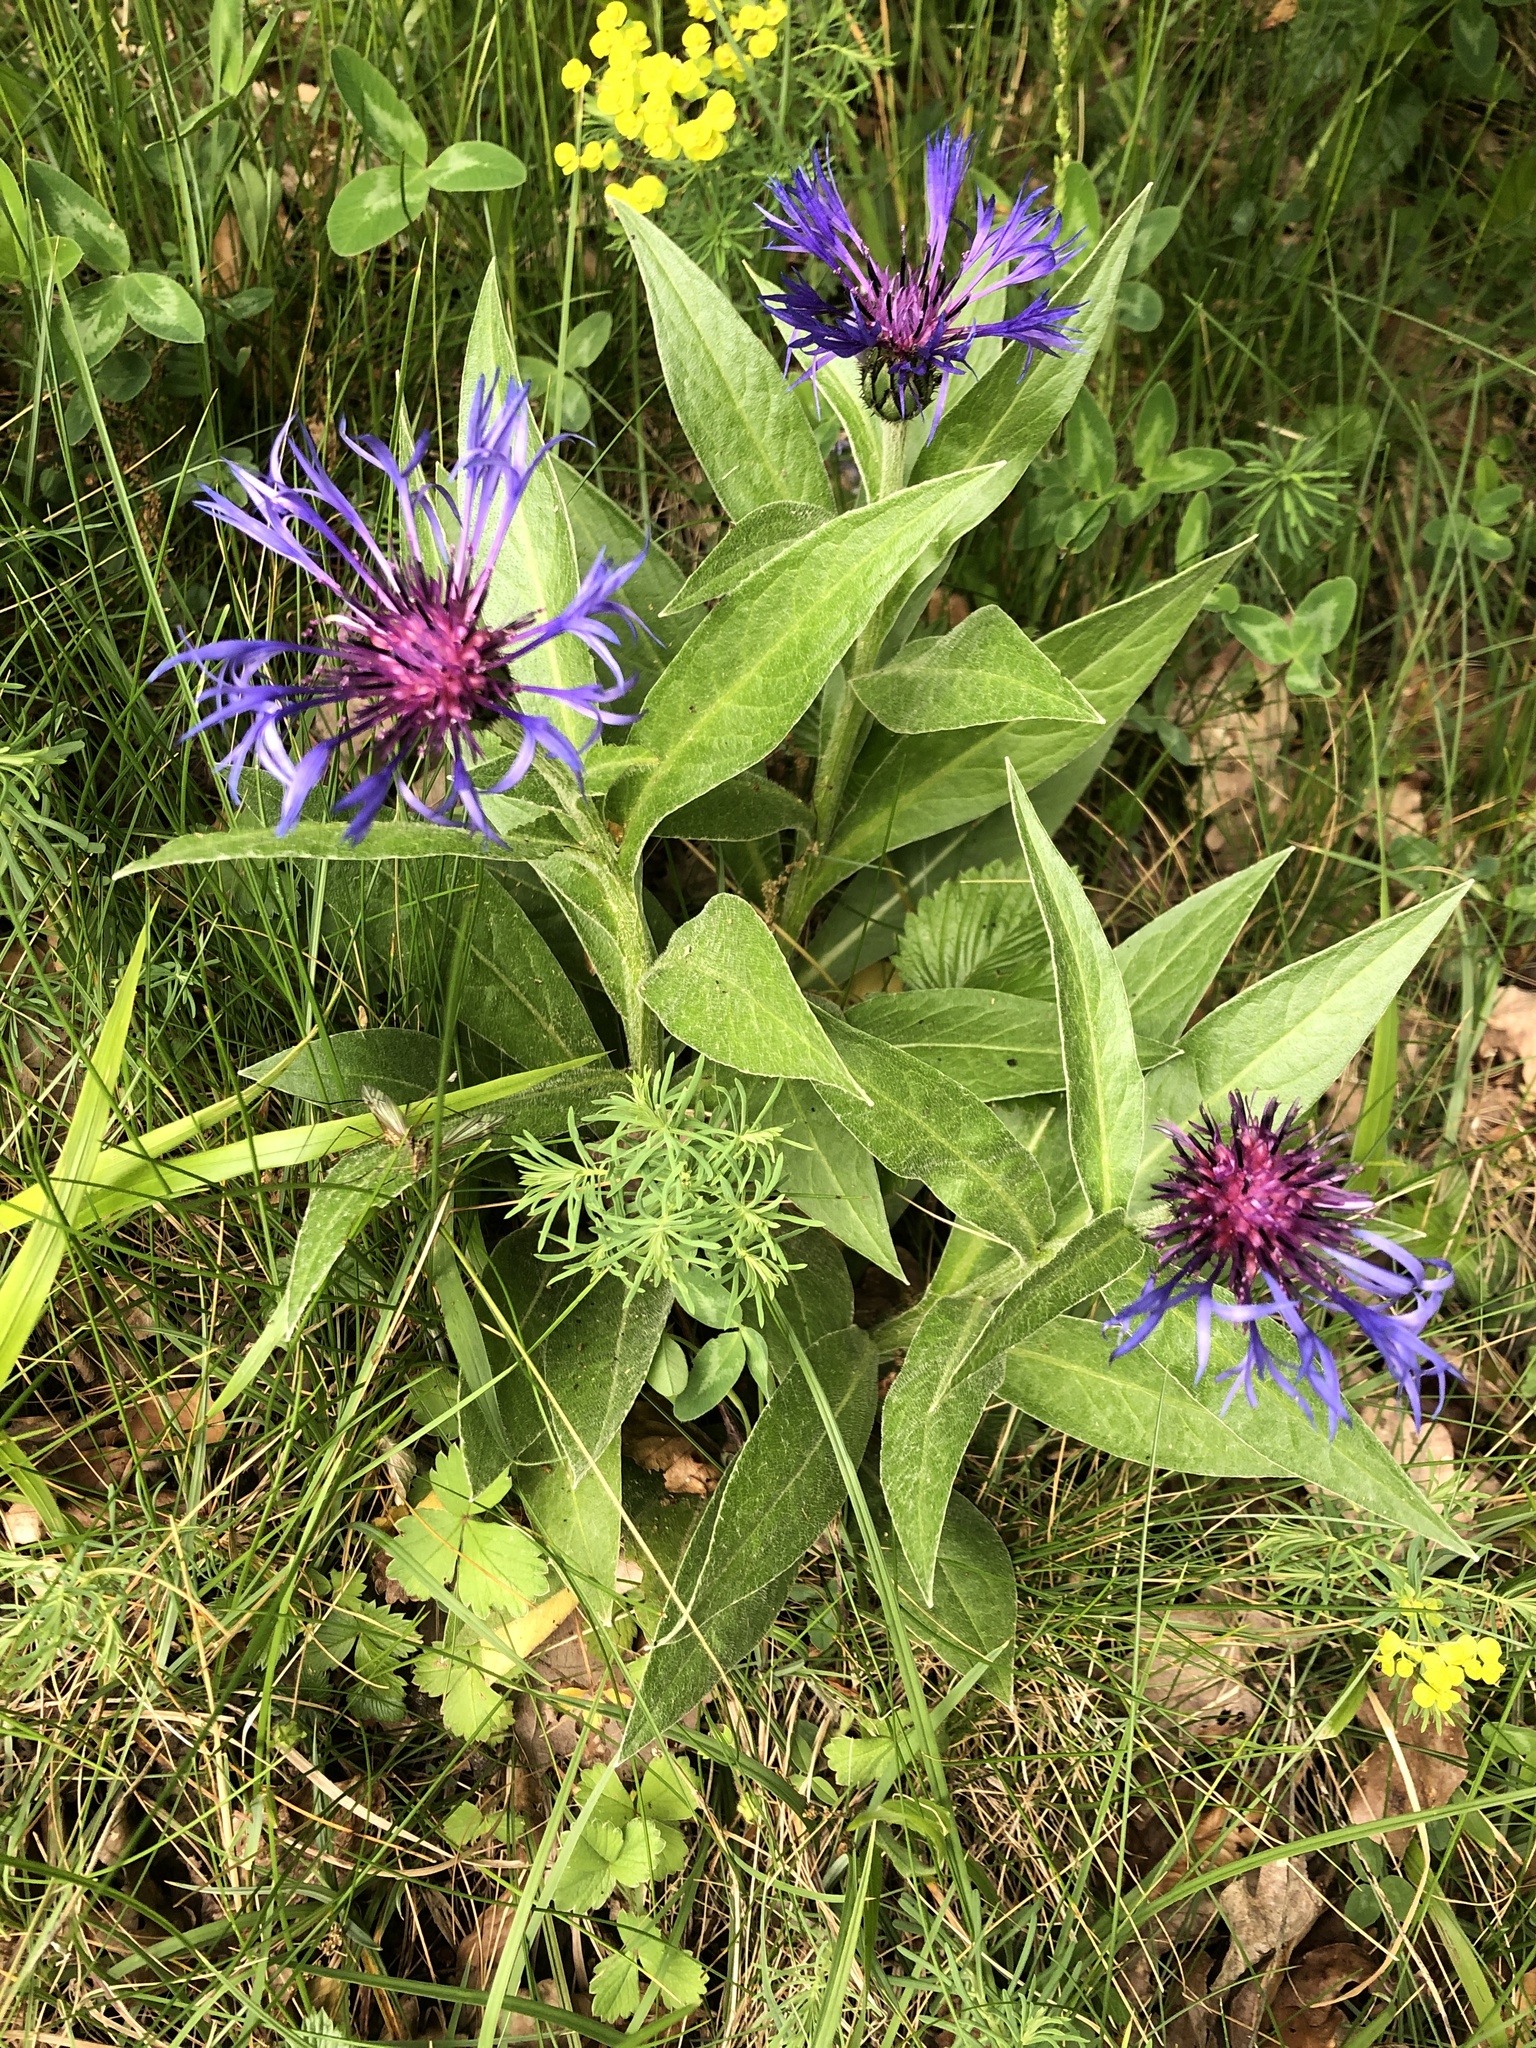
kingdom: Plantae
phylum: Tracheophyta
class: Magnoliopsida
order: Asterales
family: Asteraceae
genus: Centaurea
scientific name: Centaurea montana
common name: Perennial cornflower
